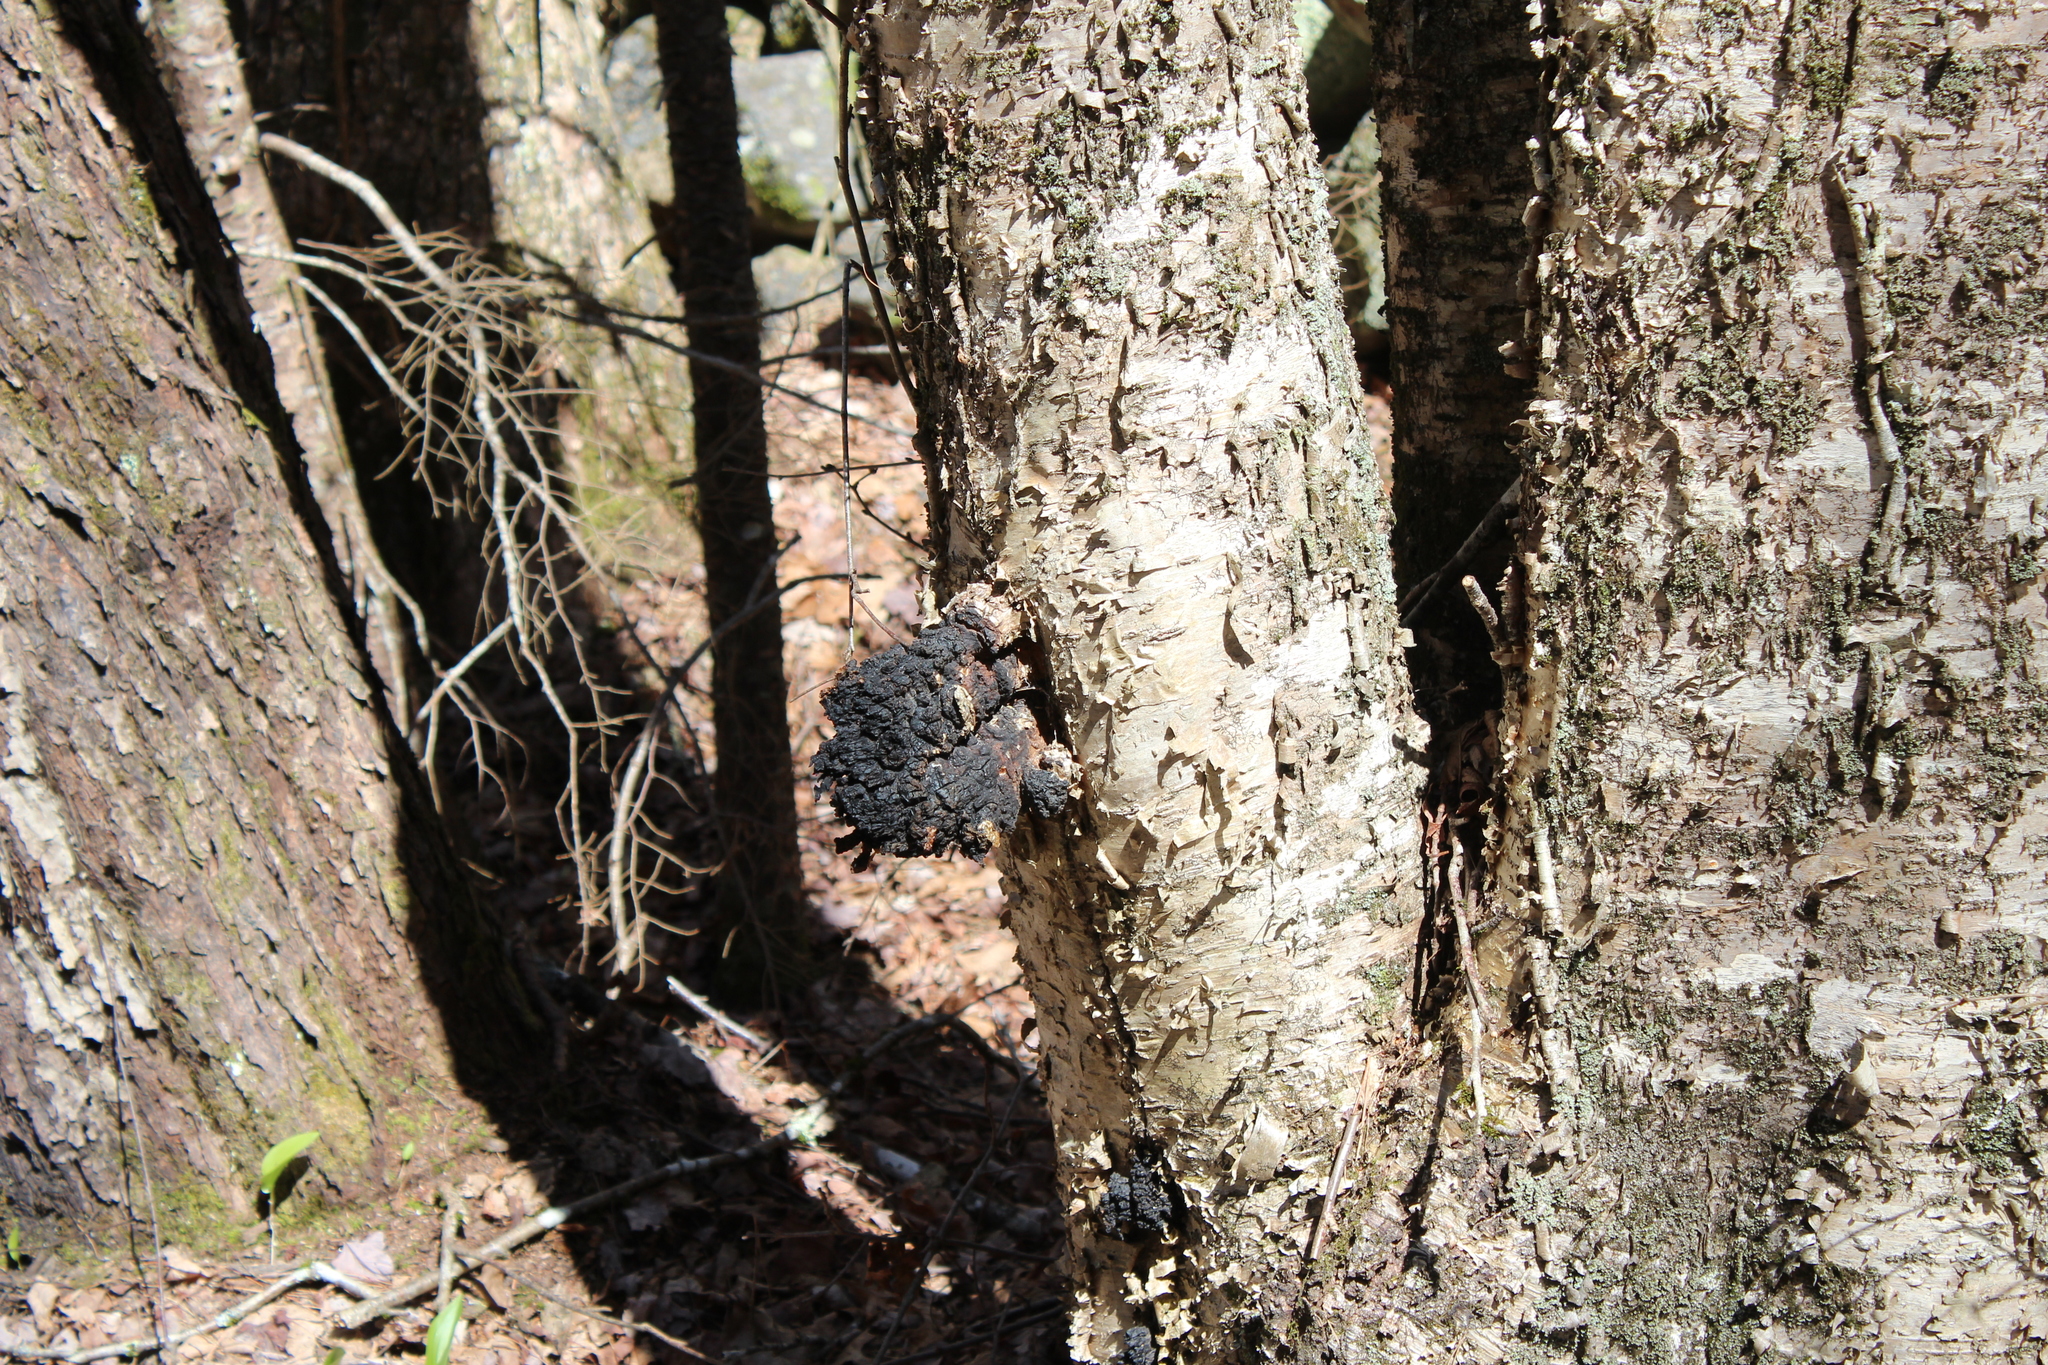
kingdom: Fungi
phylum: Basidiomycota
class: Agaricomycetes
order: Hymenochaetales
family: Hymenochaetaceae
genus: Inonotus
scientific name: Inonotus obliquus
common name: Chaga
